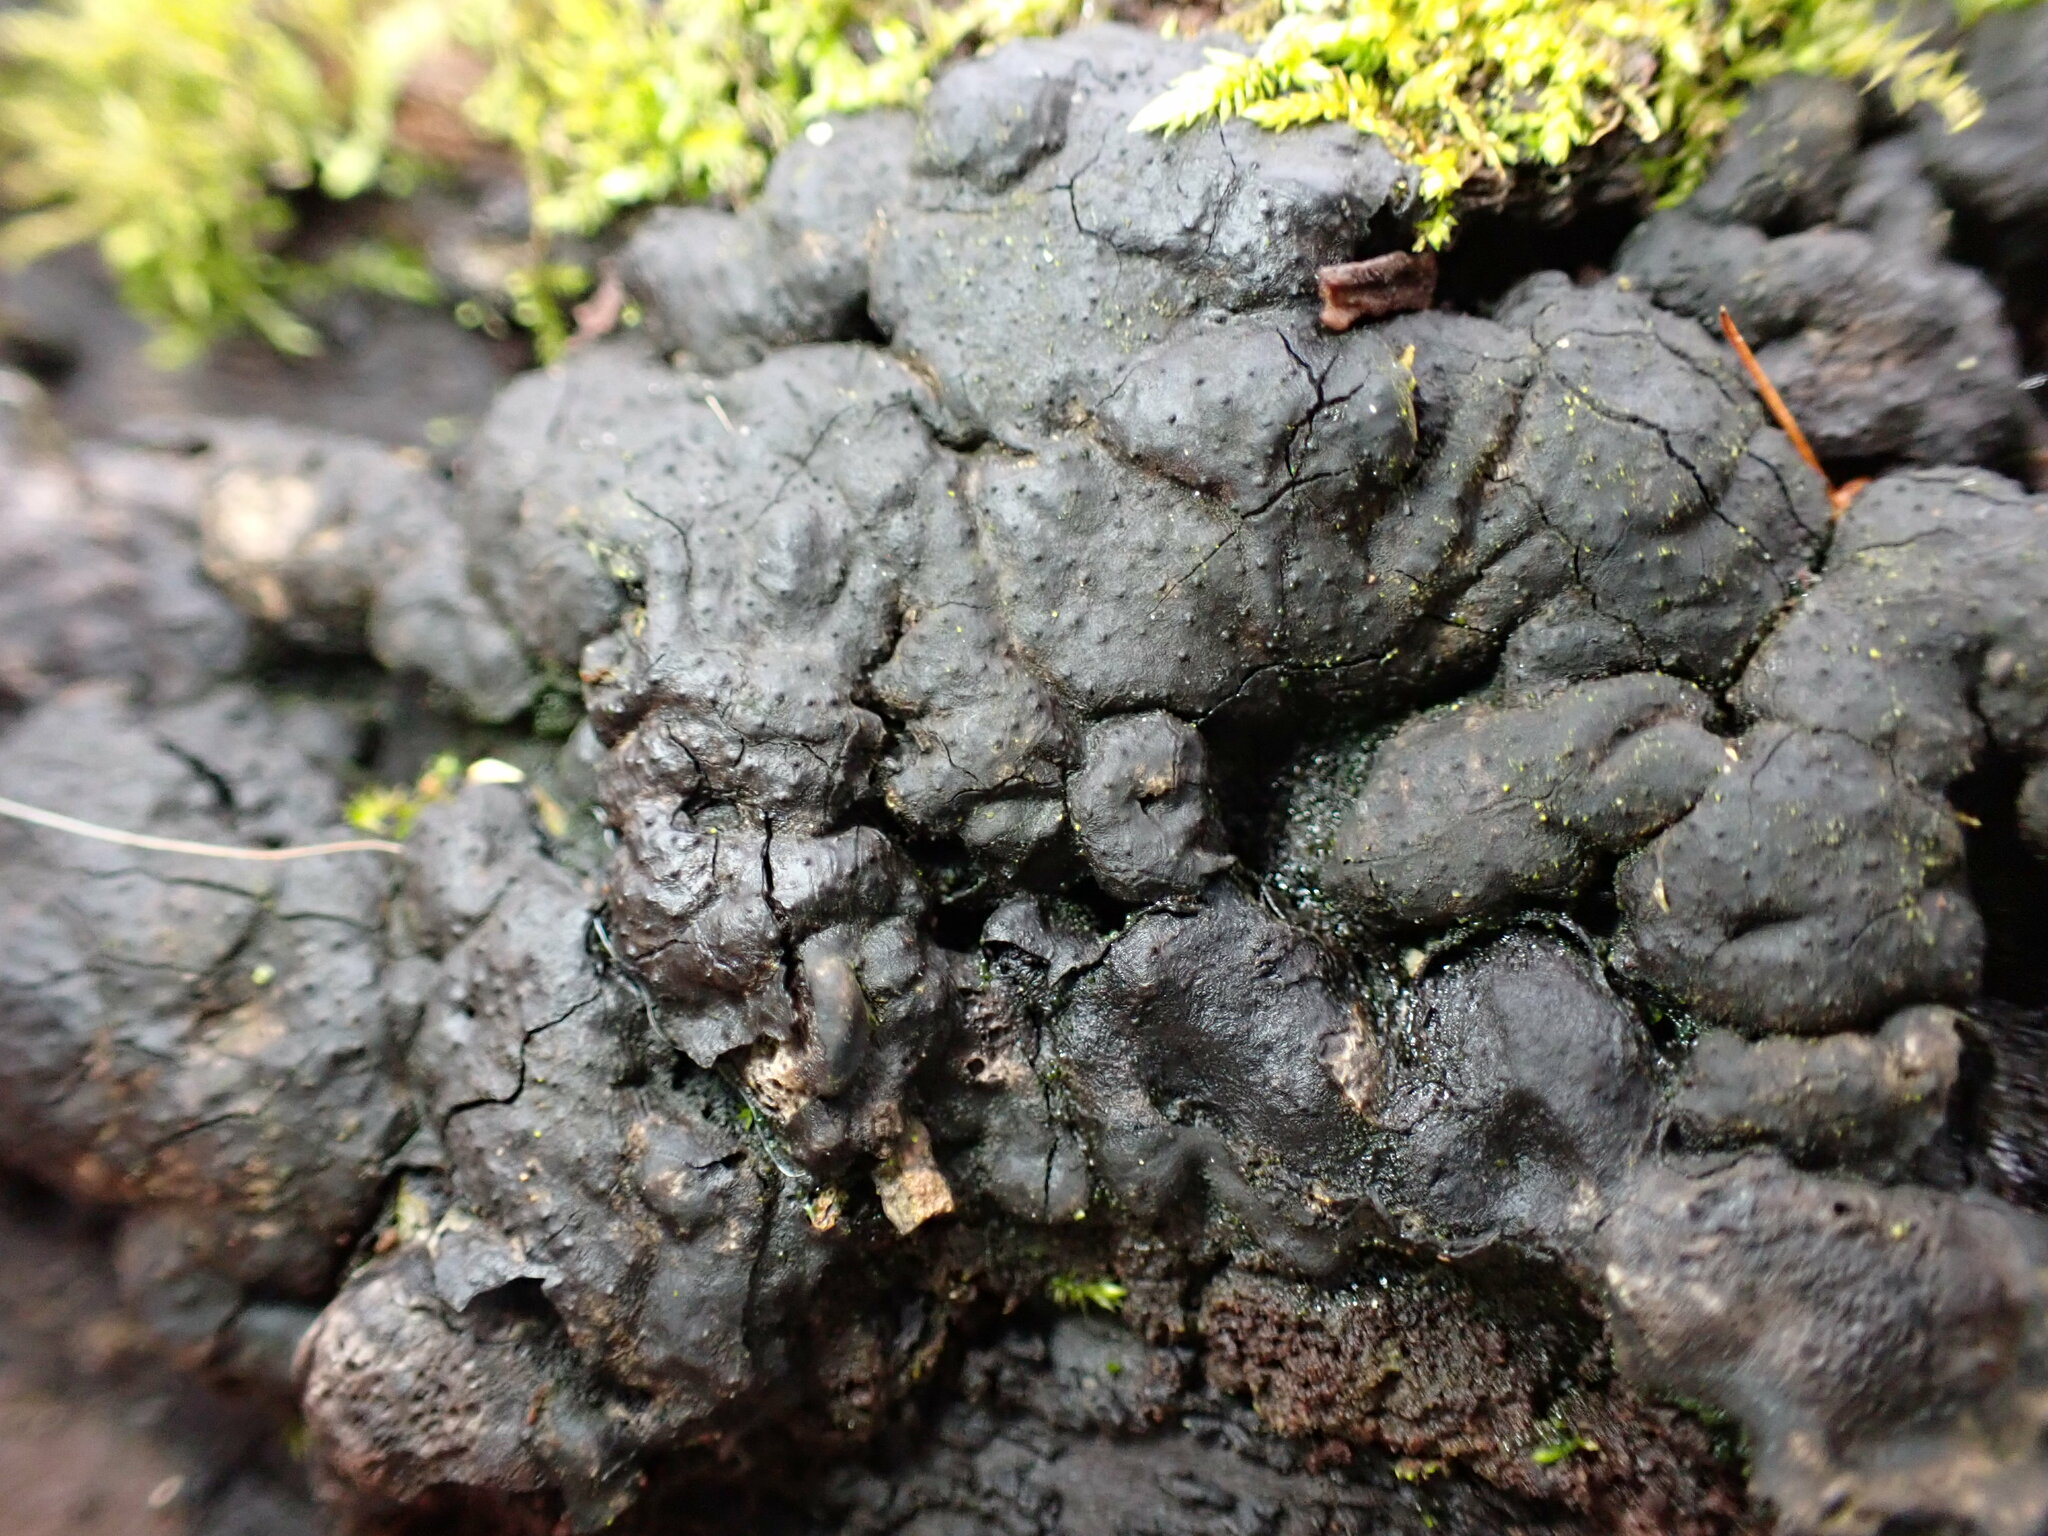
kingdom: Fungi
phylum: Ascomycota
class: Sordariomycetes
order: Xylariales
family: Xylariaceae
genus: Kretzschmaria
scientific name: Kretzschmaria deusta
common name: Brittle cinder
